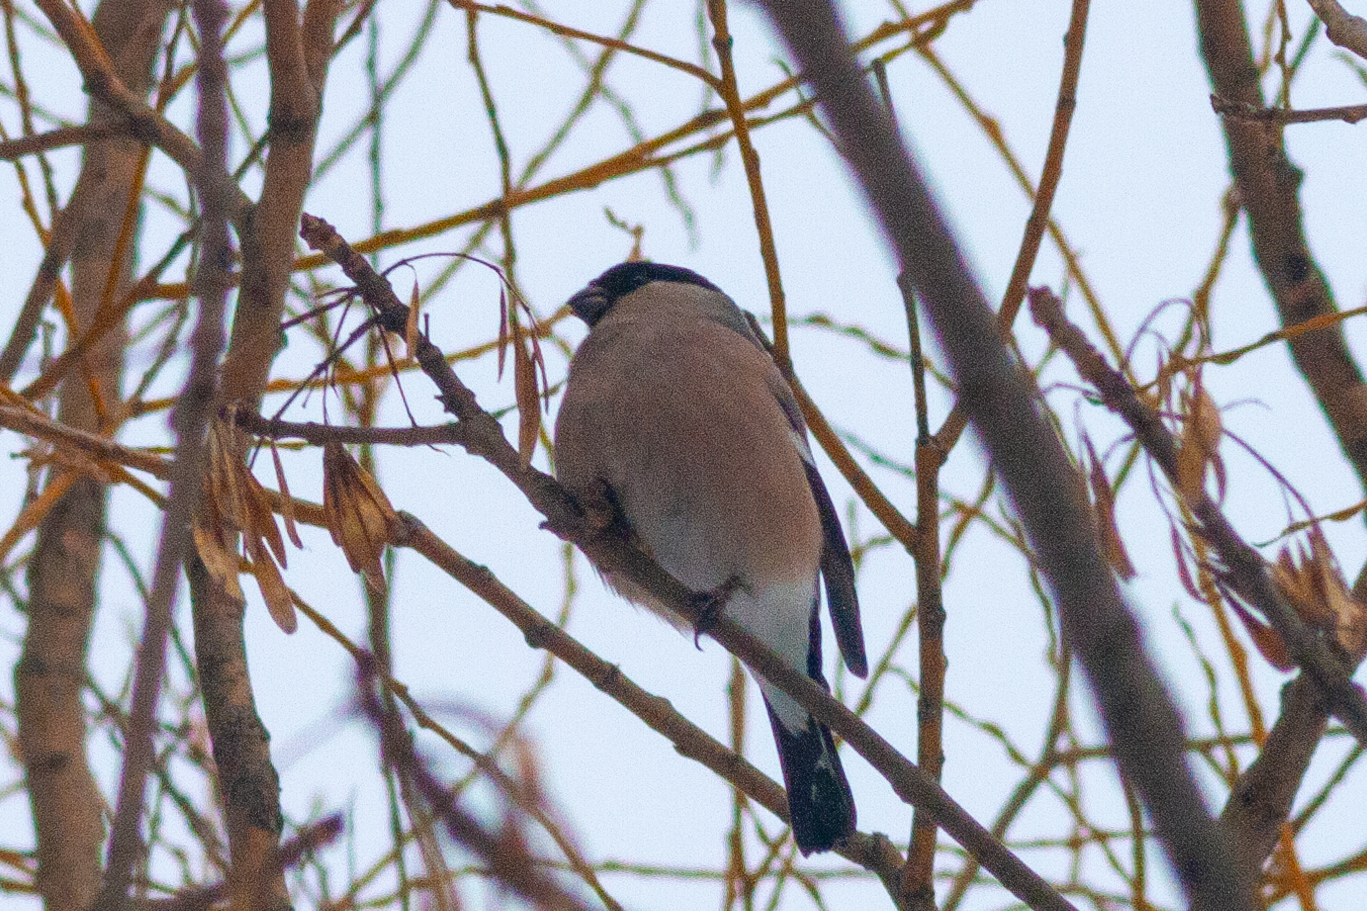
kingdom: Animalia
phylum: Chordata
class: Aves
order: Passeriformes
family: Fringillidae
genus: Pyrrhula
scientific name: Pyrrhula pyrrhula
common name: Eurasian bullfinch
